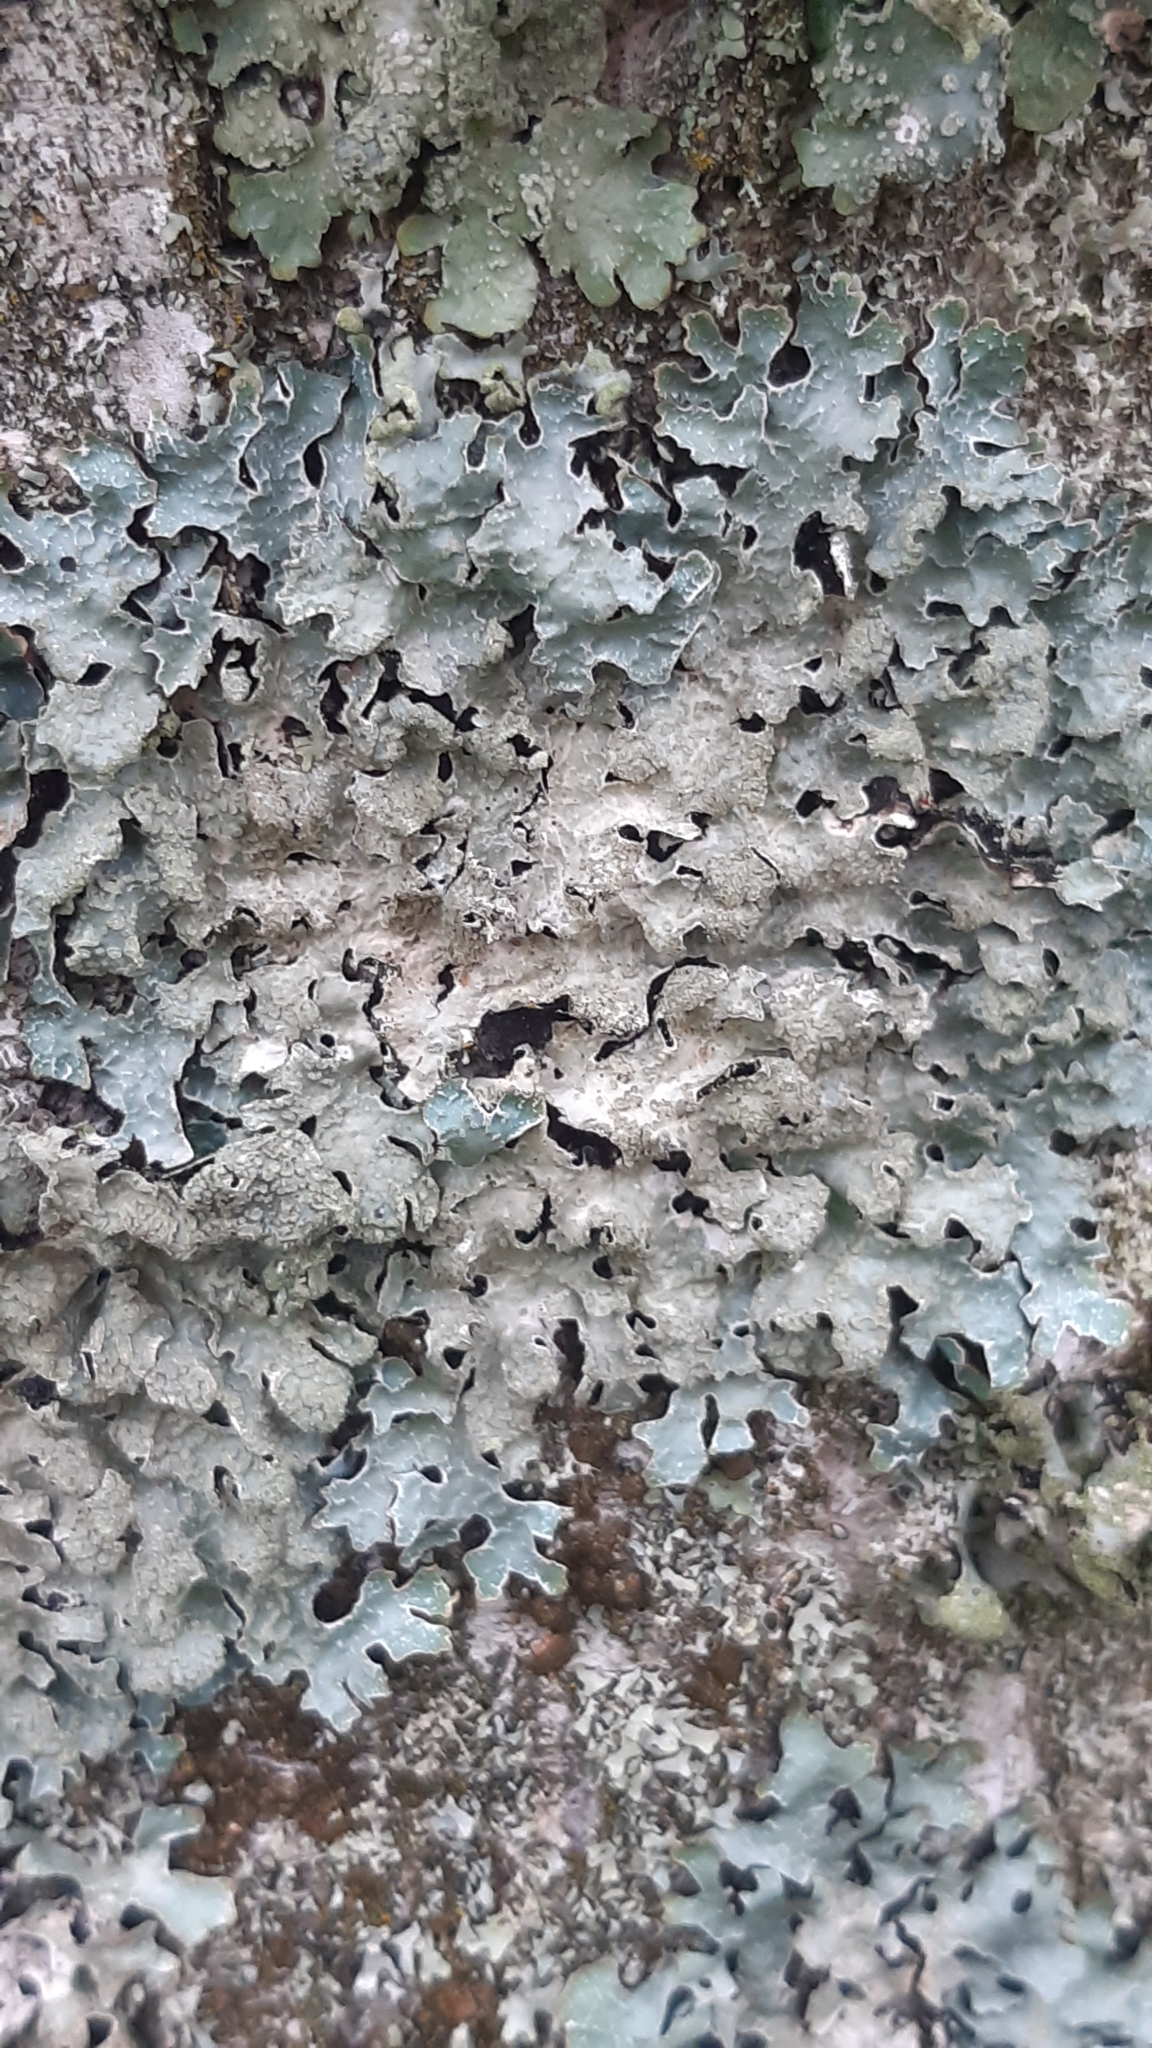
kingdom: Fungi
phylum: Ascomycota
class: Lecanoromycetes
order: Lecanorales
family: Parmeliaceae
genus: Parmelia
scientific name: Parmelia sulcata
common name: Netted shield lichen
